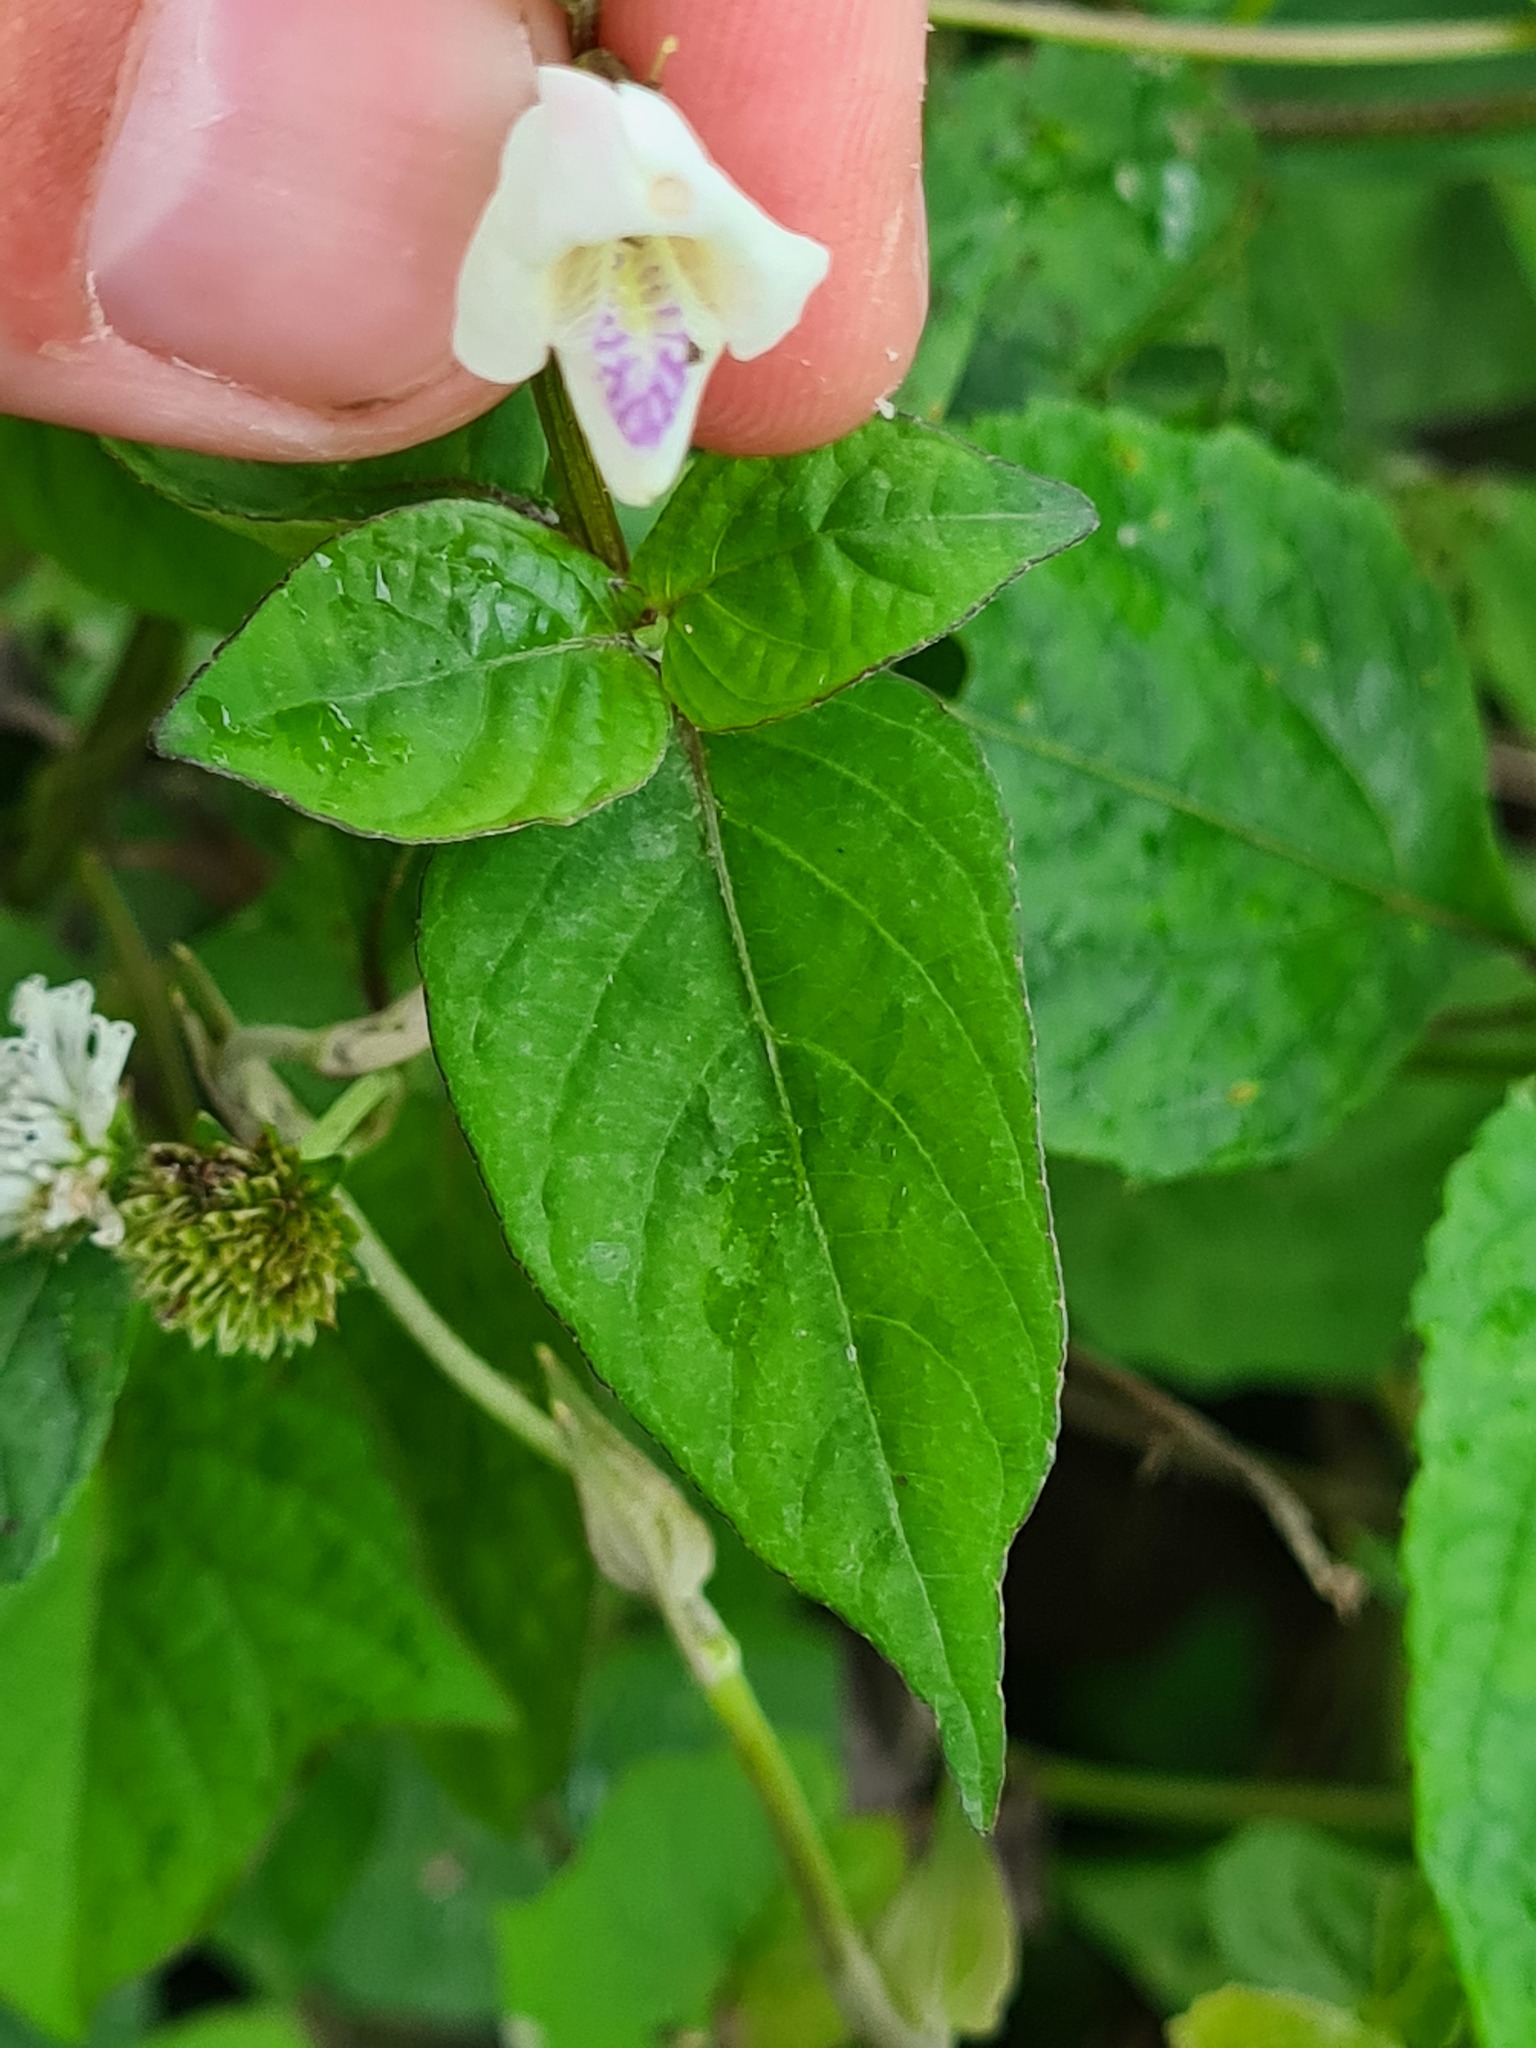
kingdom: Plantae
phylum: Tracheophyta
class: Magnoliopsida
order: Lamiales
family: Acanthaceae
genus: Asystasia
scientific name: Asystasia intrusa
